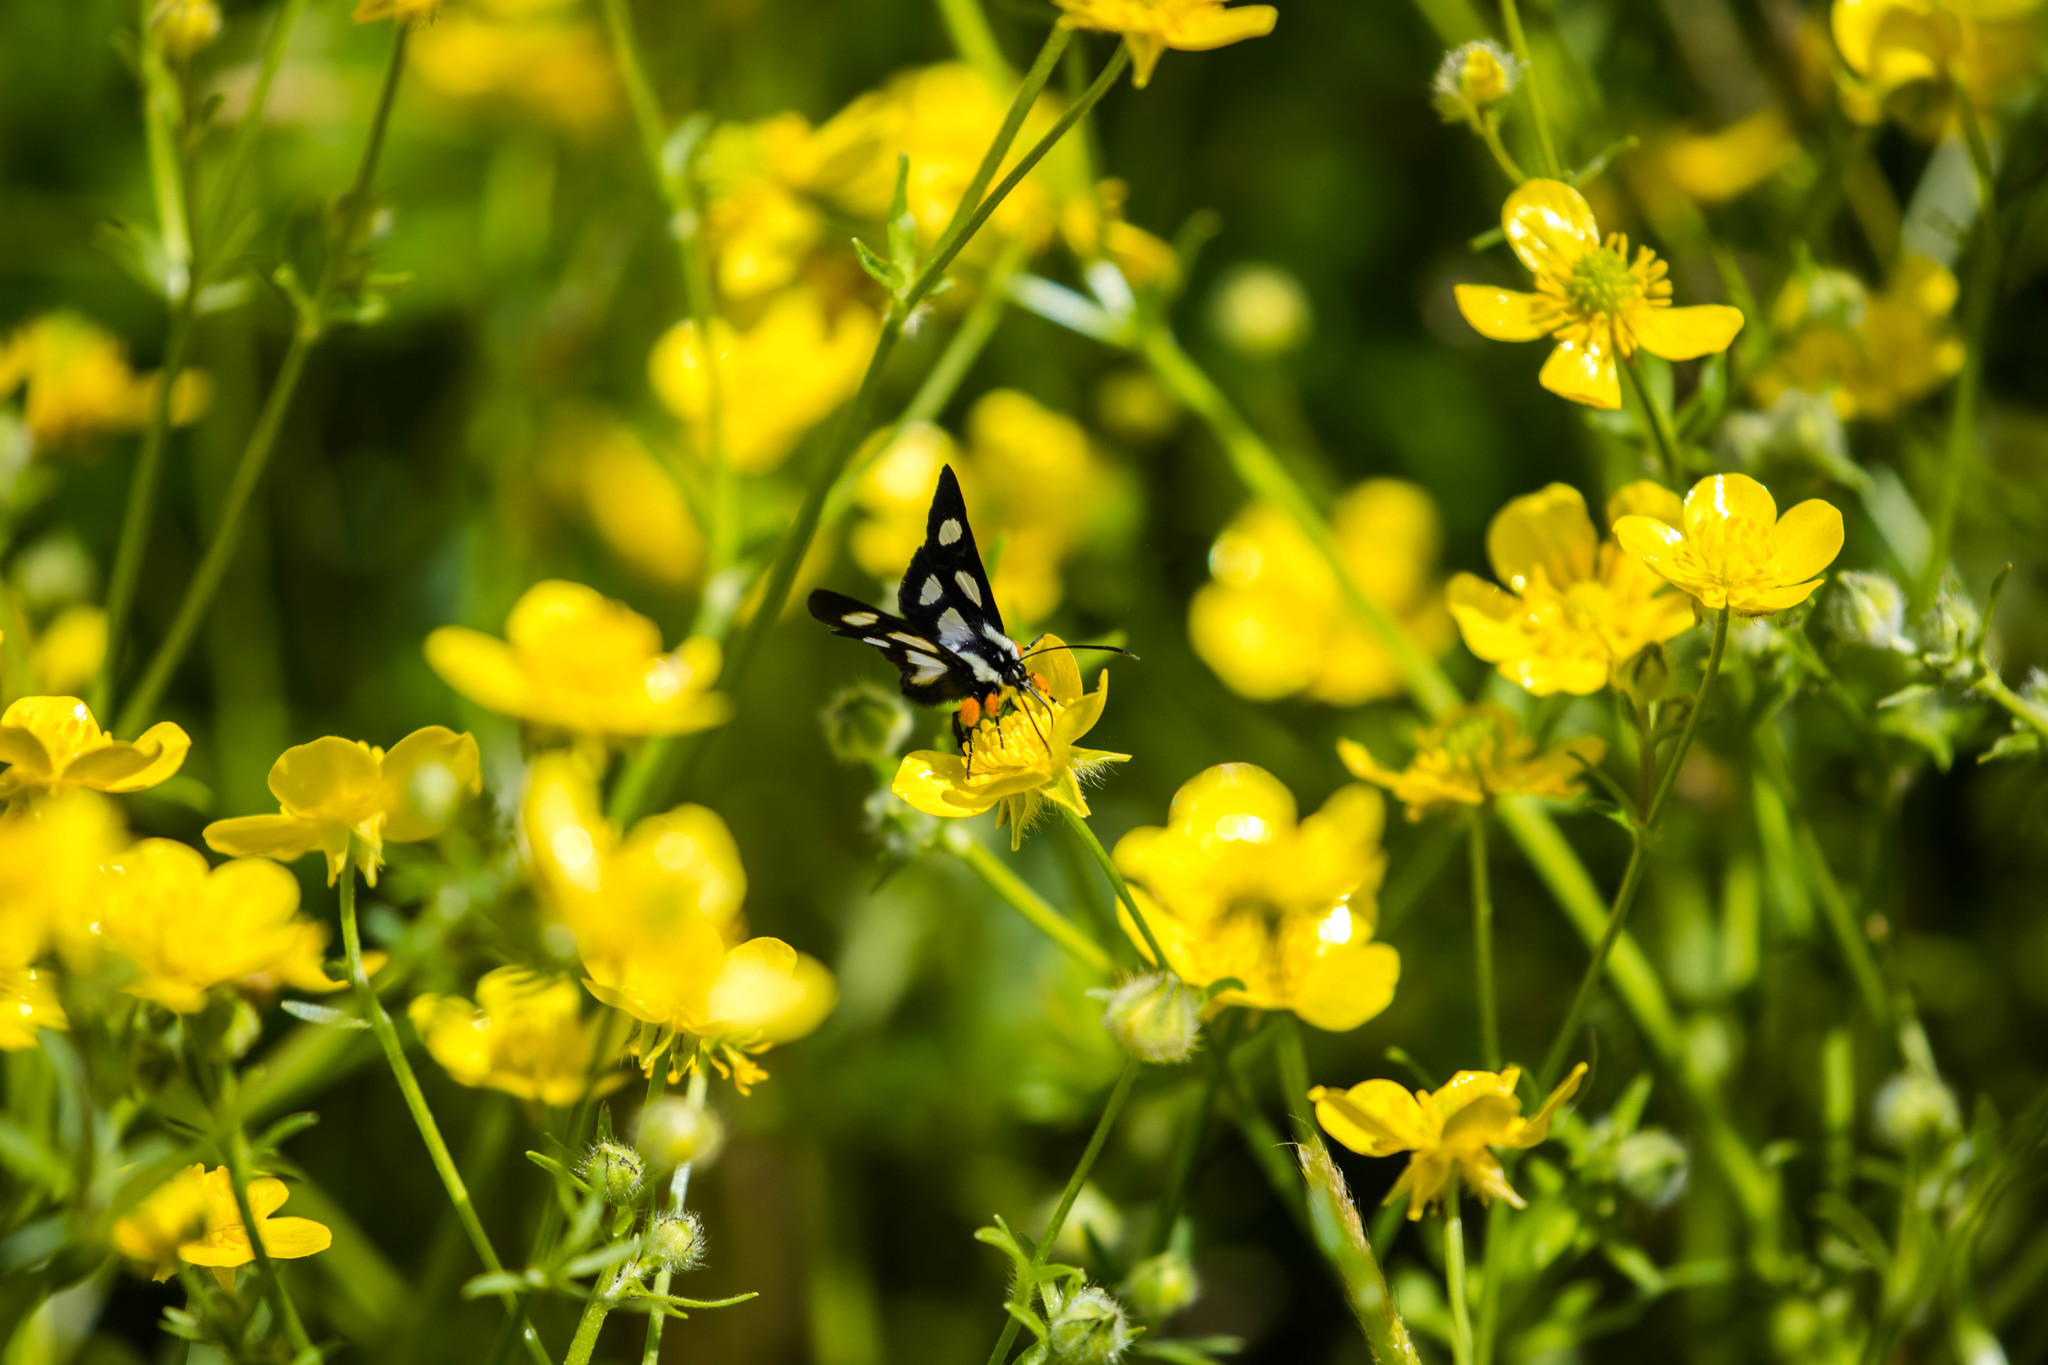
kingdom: Animalia
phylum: Arthropoda
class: Insecta
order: Lepidoptera
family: Noctuidae
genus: Alypia
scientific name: Alypia octomaculata
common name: Eight-spotted forester
